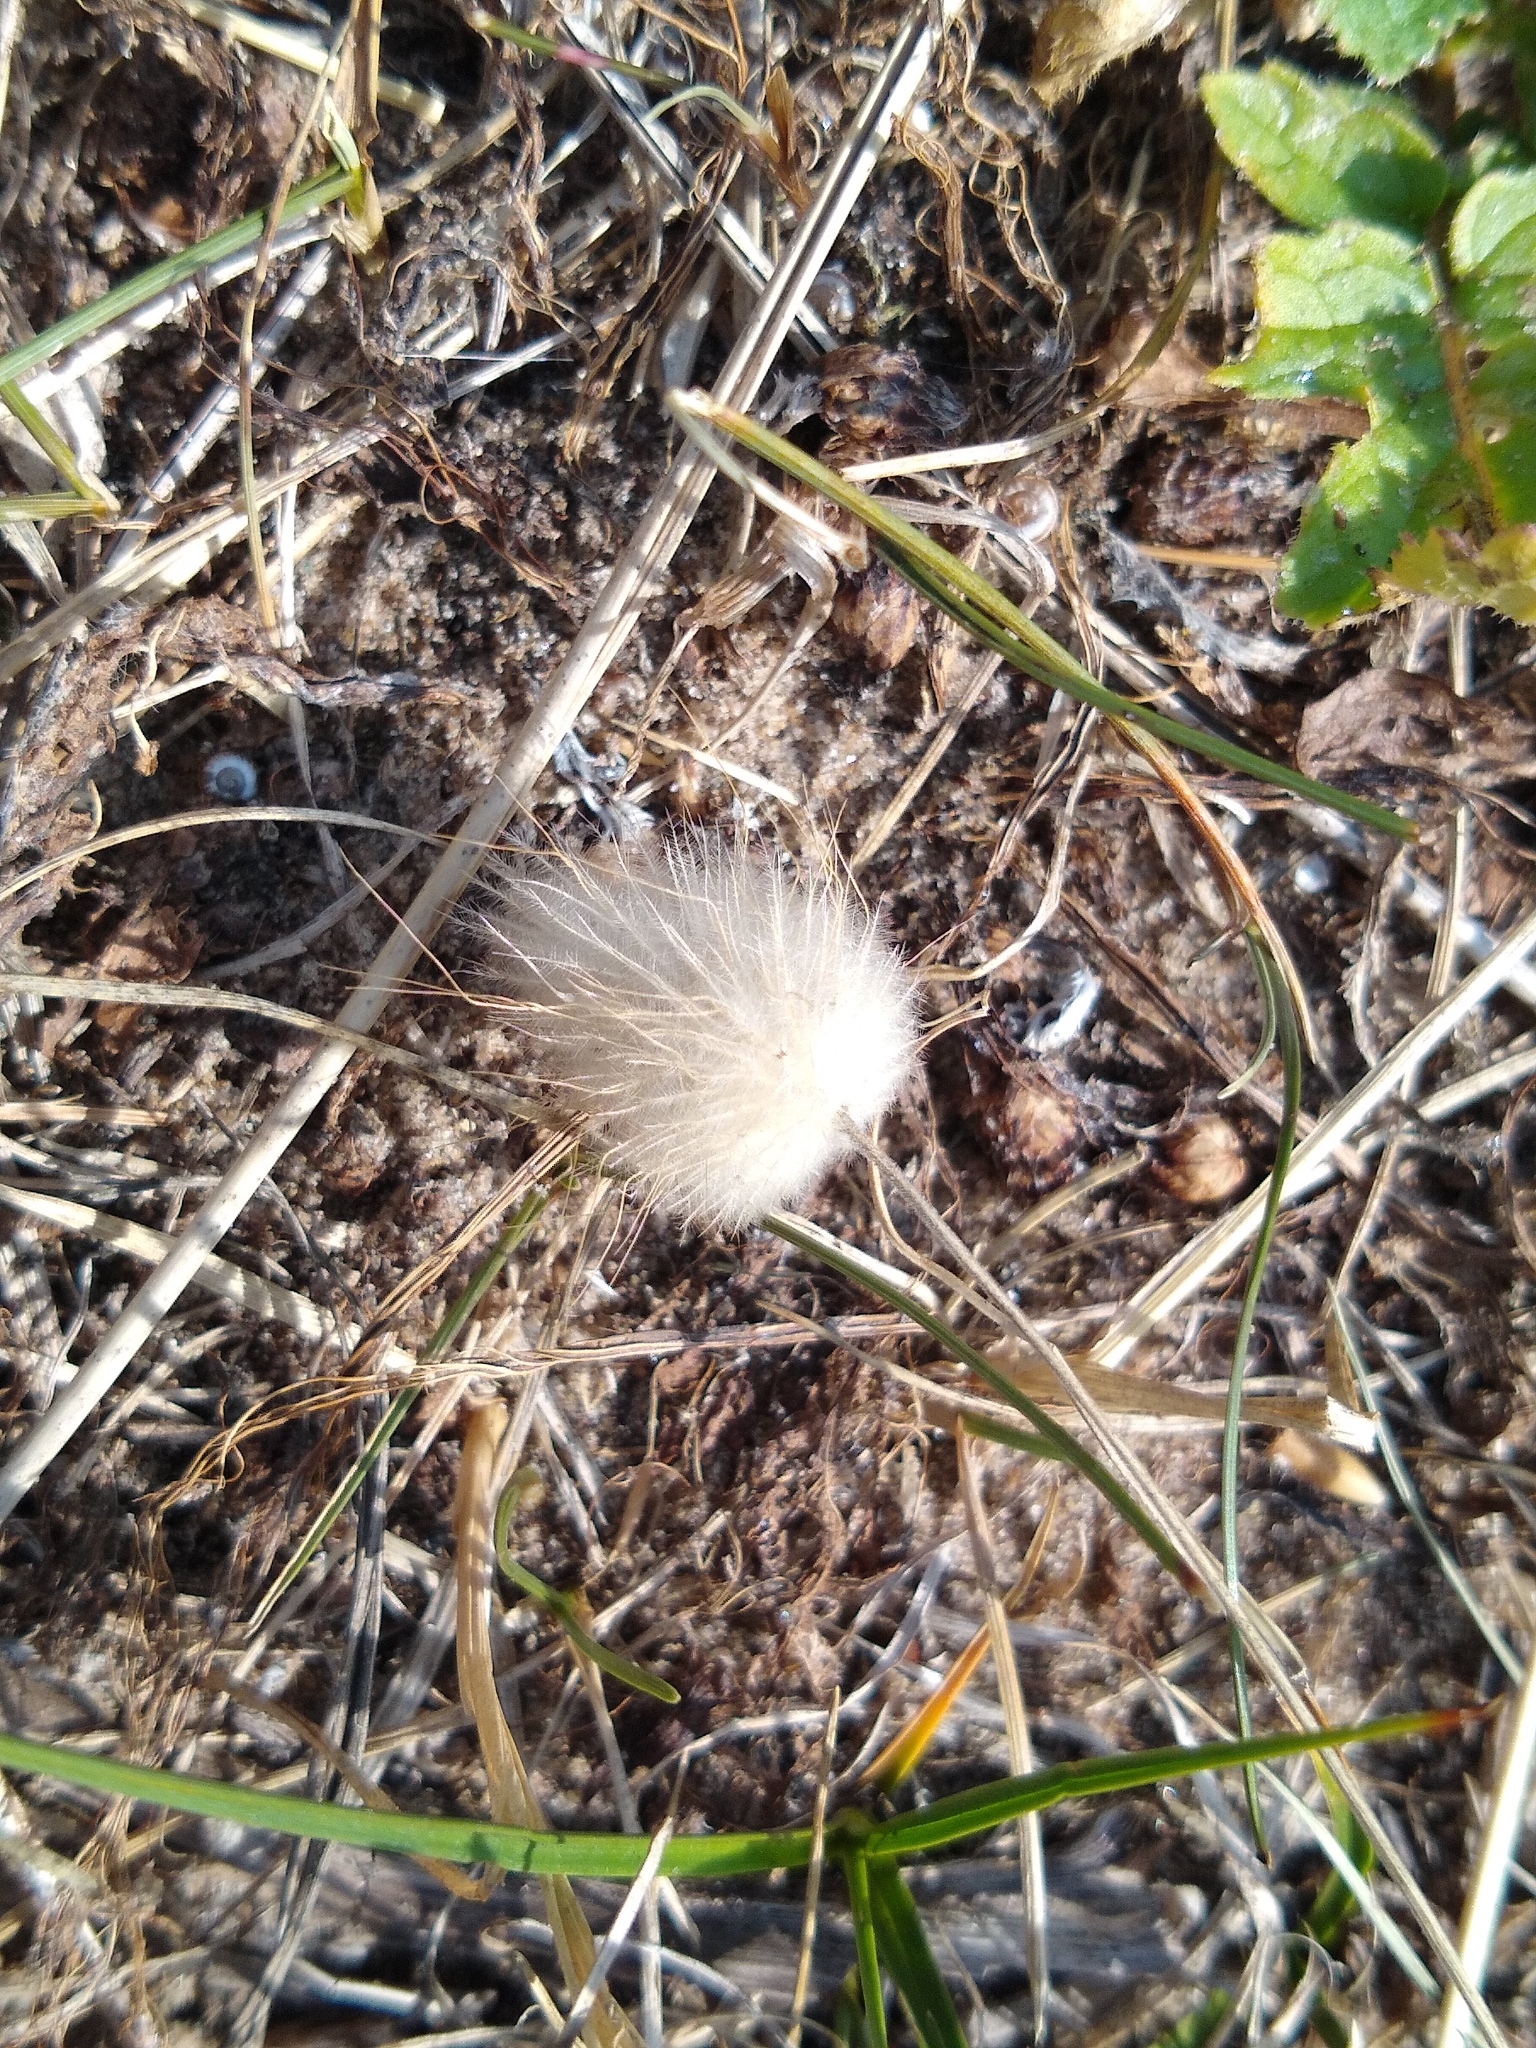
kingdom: Plantae
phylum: Tracheophyta
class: Liliopsida
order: Poales
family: Poaceae
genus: Lagurus
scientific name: Lagurus ovatus
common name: Hare's-tail
